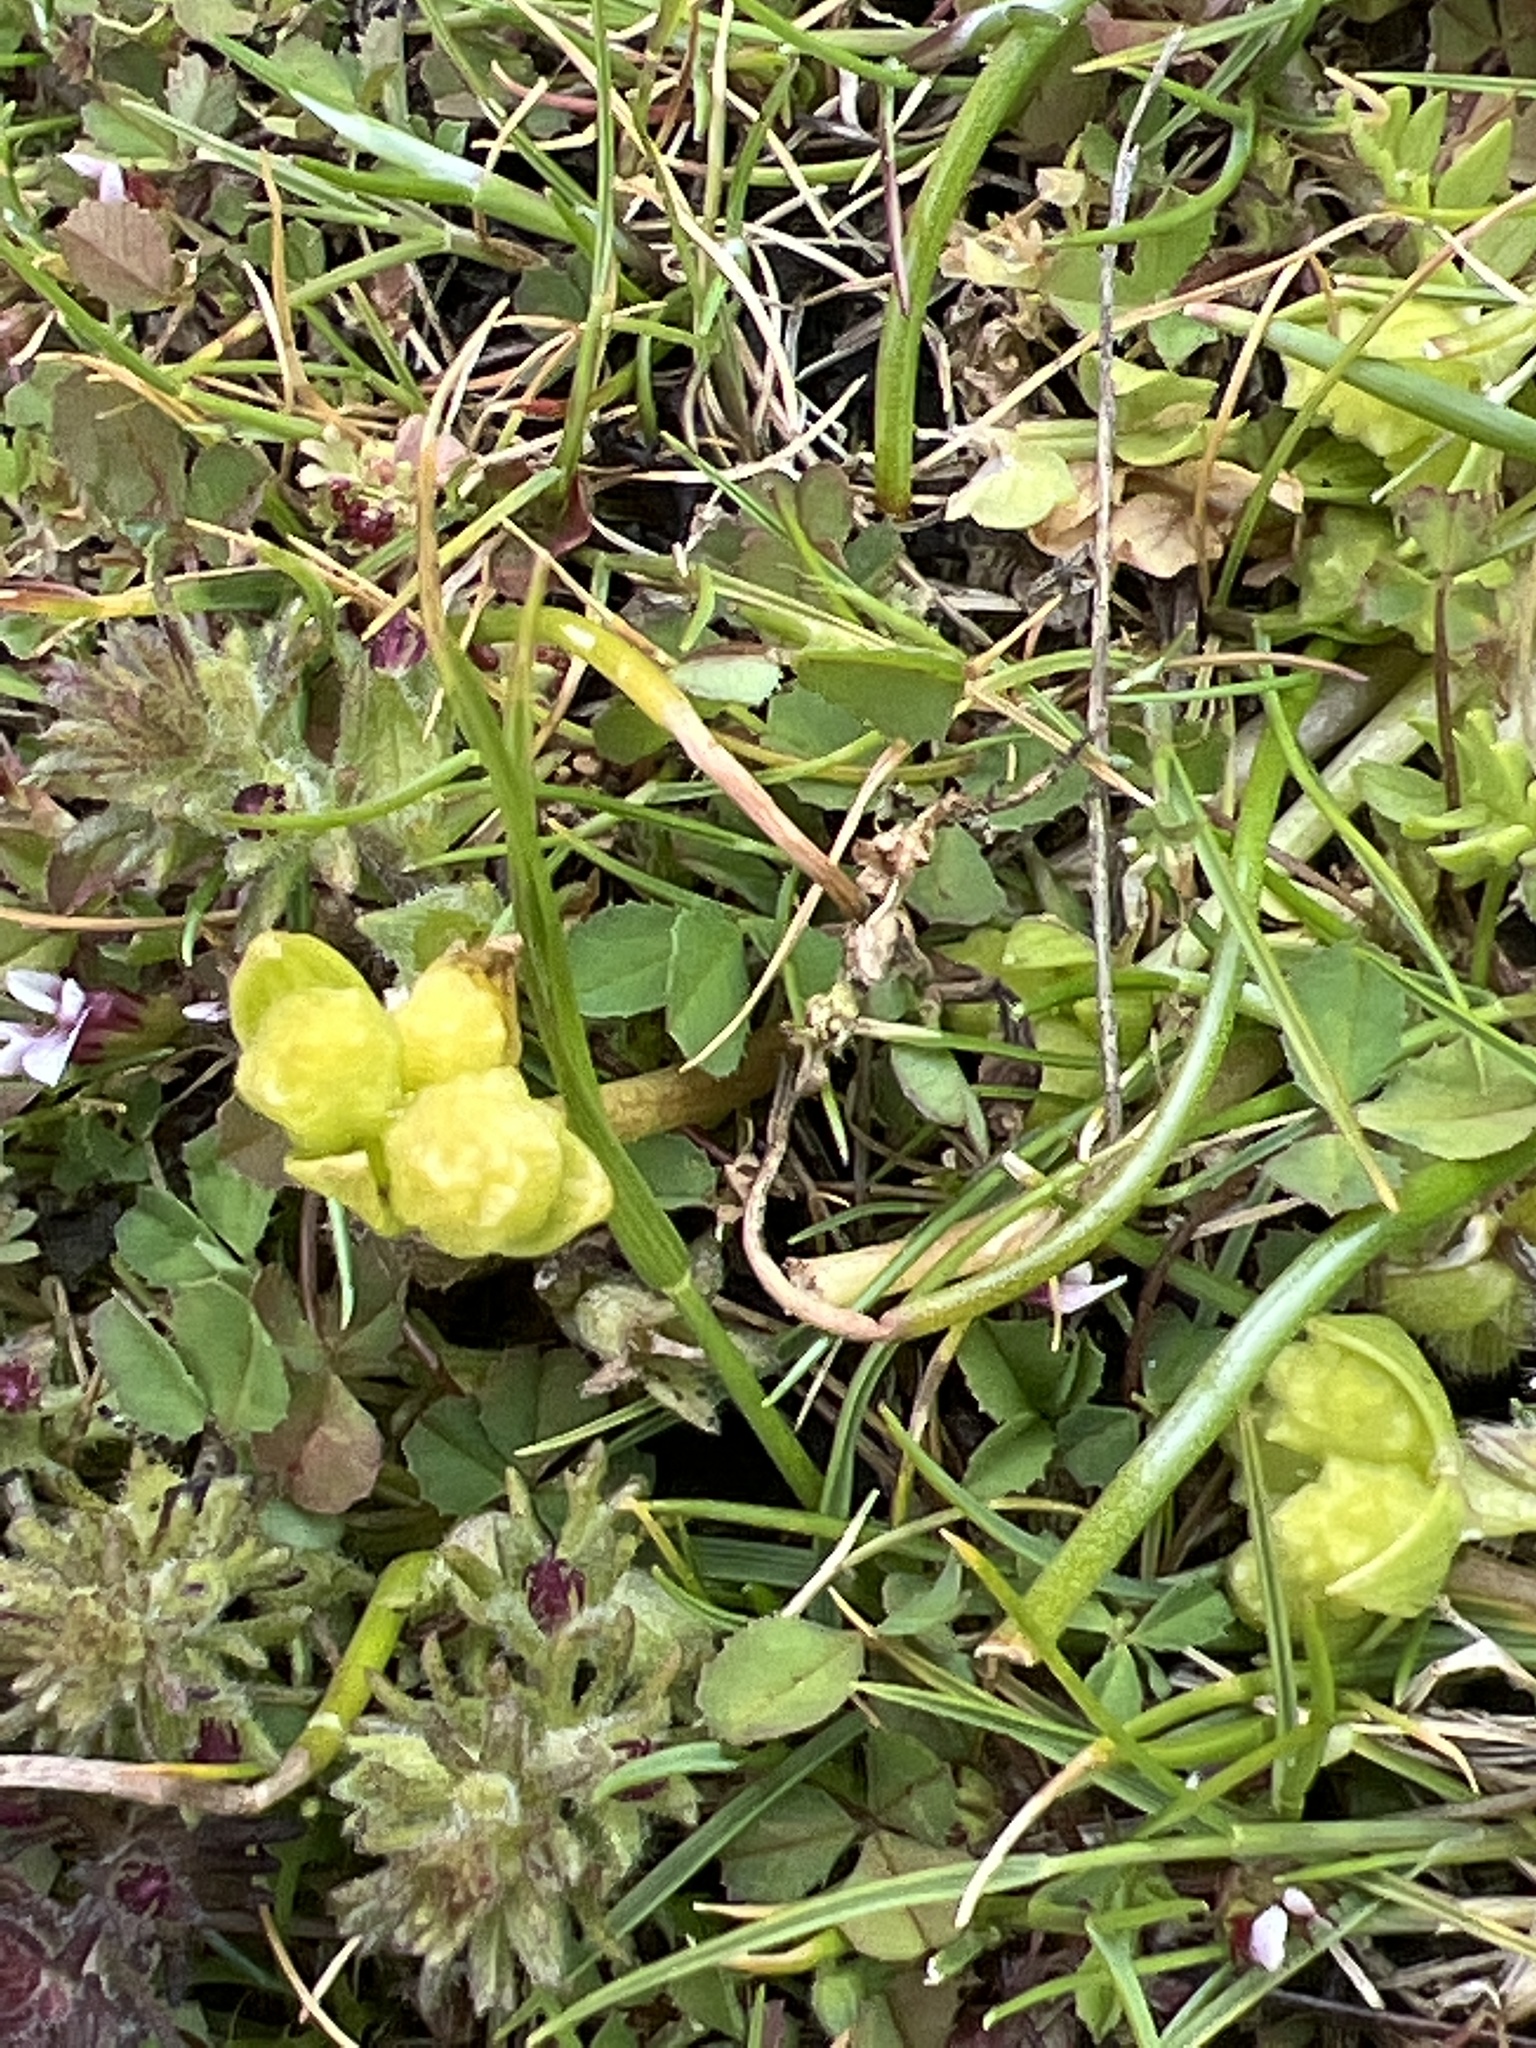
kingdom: Plantae
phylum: Tracheophyta
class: Magnoliopsida
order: Brassicales
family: Limnanthaceae
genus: Limnanthes
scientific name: Limnanthes macounii
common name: Macoun's meadowfoam
